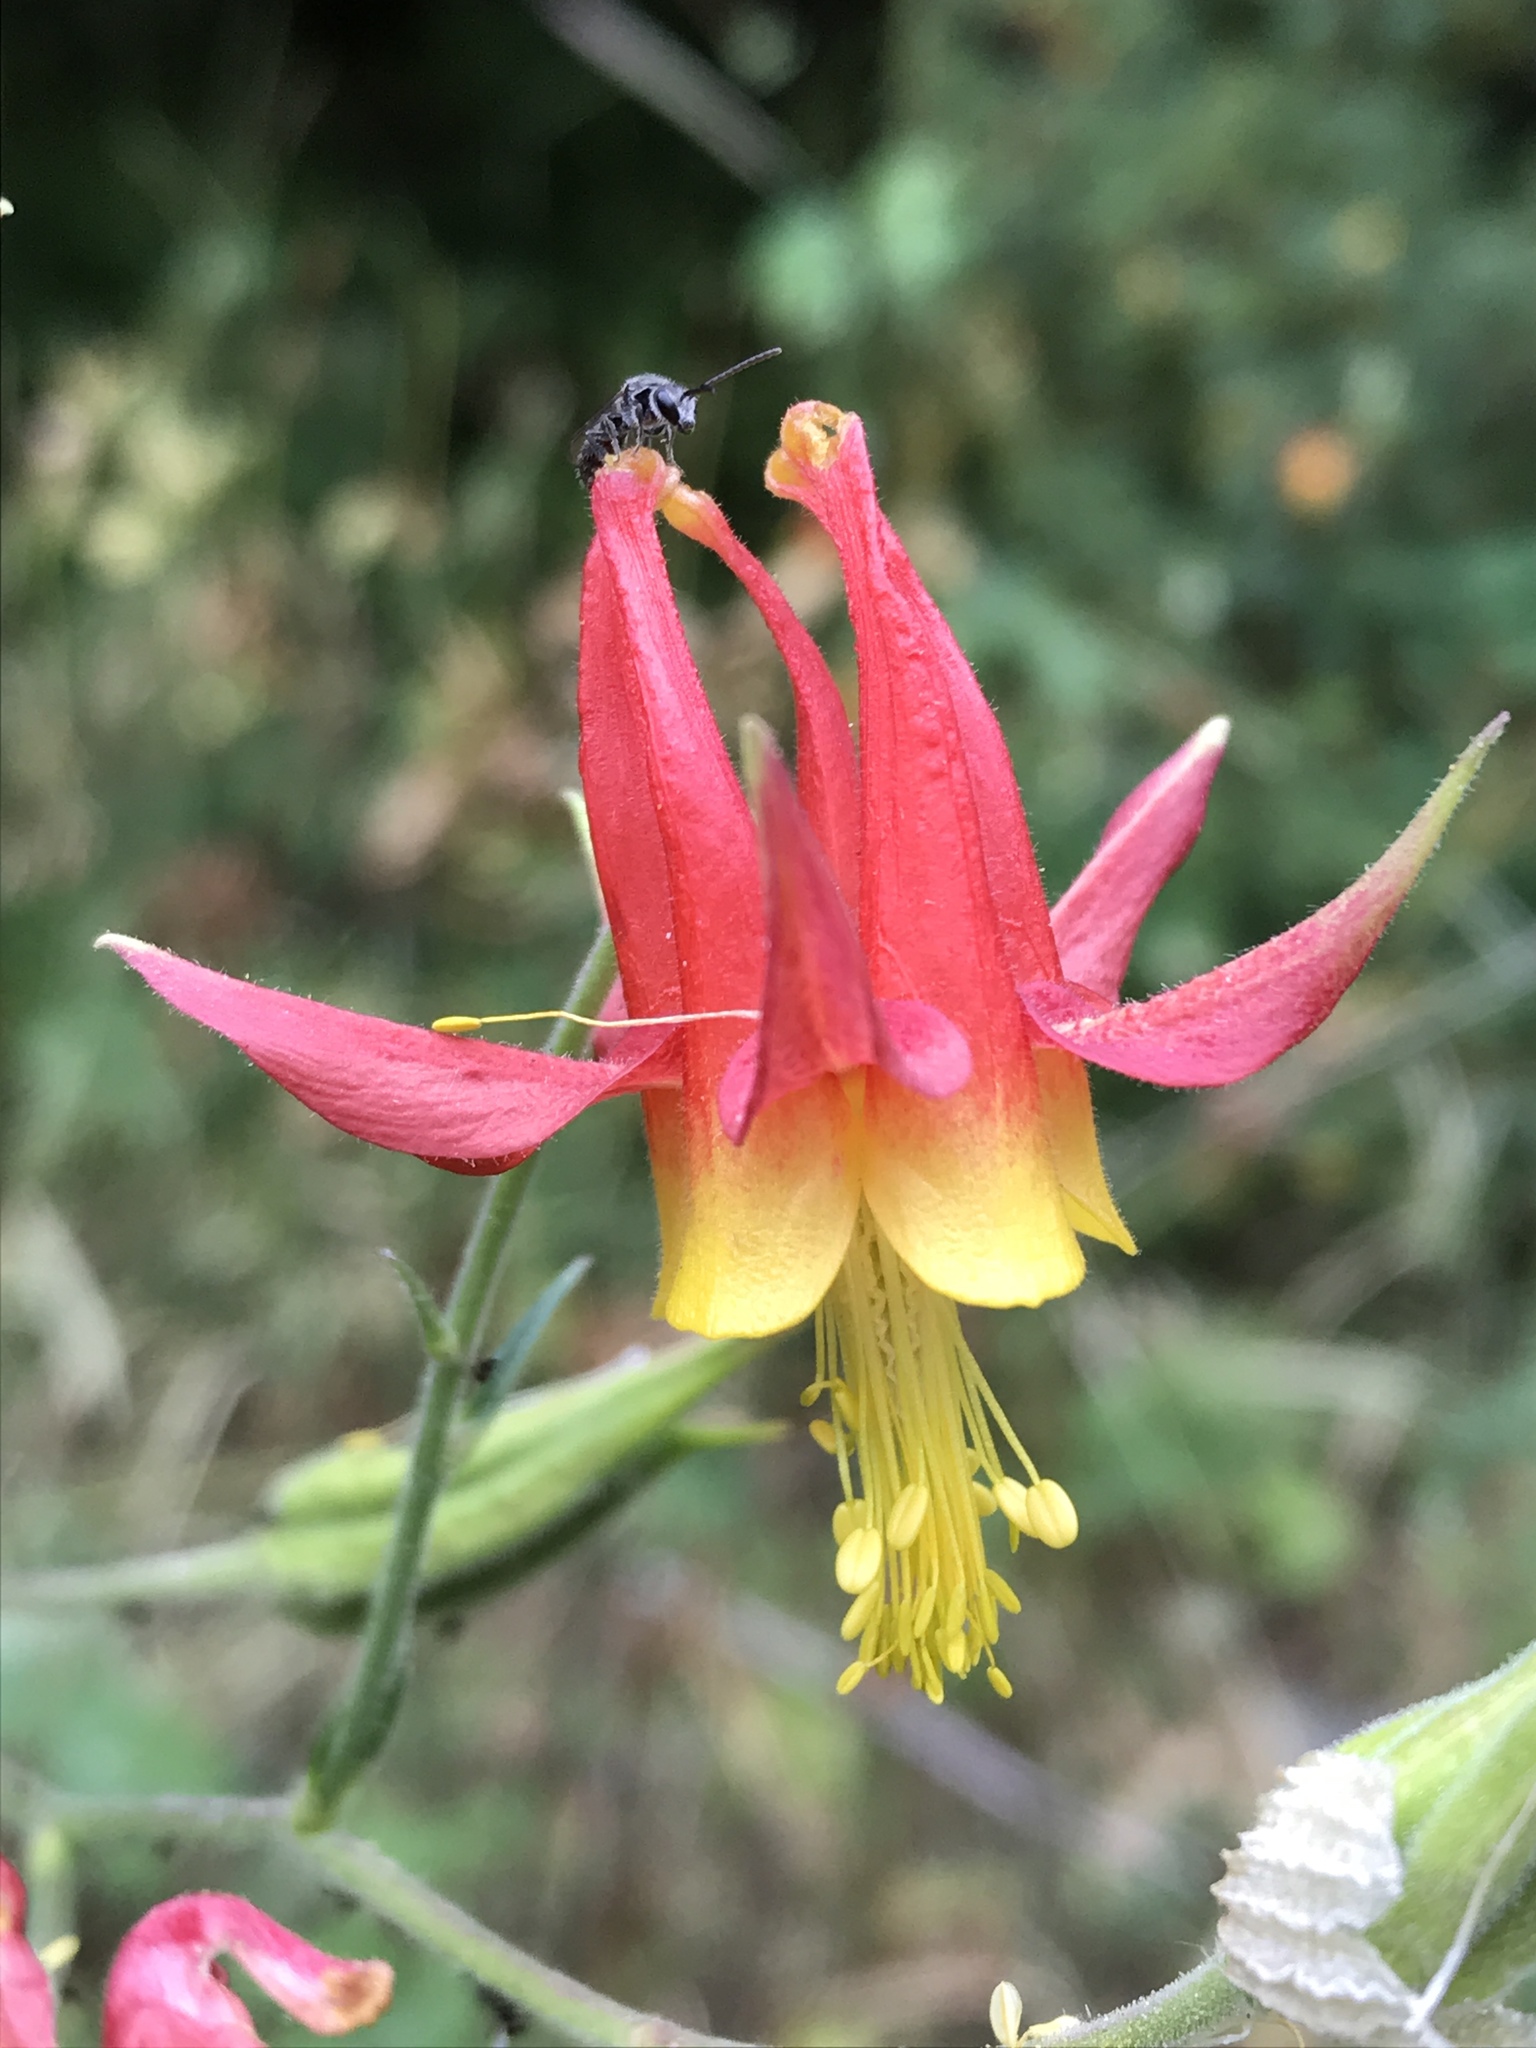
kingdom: Plantae
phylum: Tracheophyta
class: Magnoliopsida
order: Ranunculales
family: Ranunculaceae
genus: Aquilegia
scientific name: Aquilegia formosa
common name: Sitka columbine
